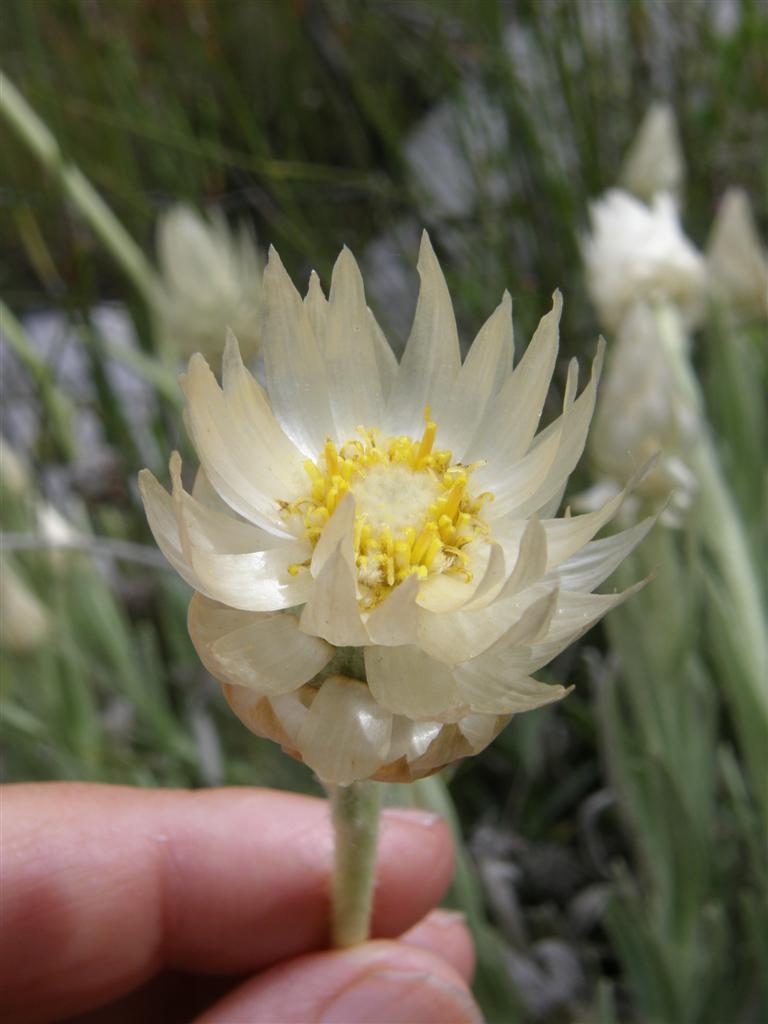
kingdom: Plantae
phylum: Tracheophyta
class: Magnoliopsida
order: Asterales
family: Asteraceae
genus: Syncarpha
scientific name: Syncarpha speciosissima
